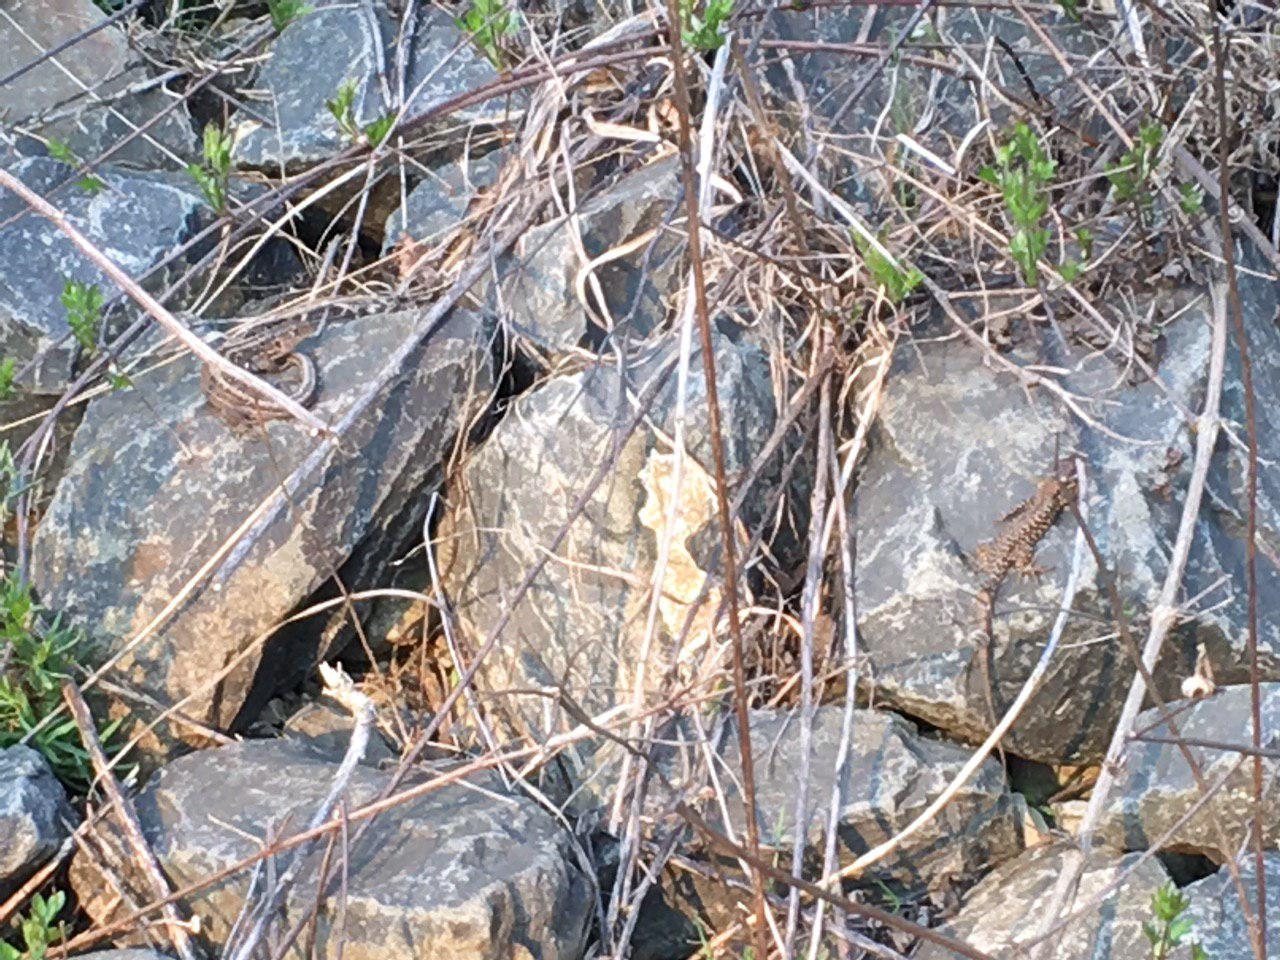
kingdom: Animalia
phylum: Chordata
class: Squamata
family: Lacertidae
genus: Lacerta
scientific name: Lacerta agilis
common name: Sand lizard
